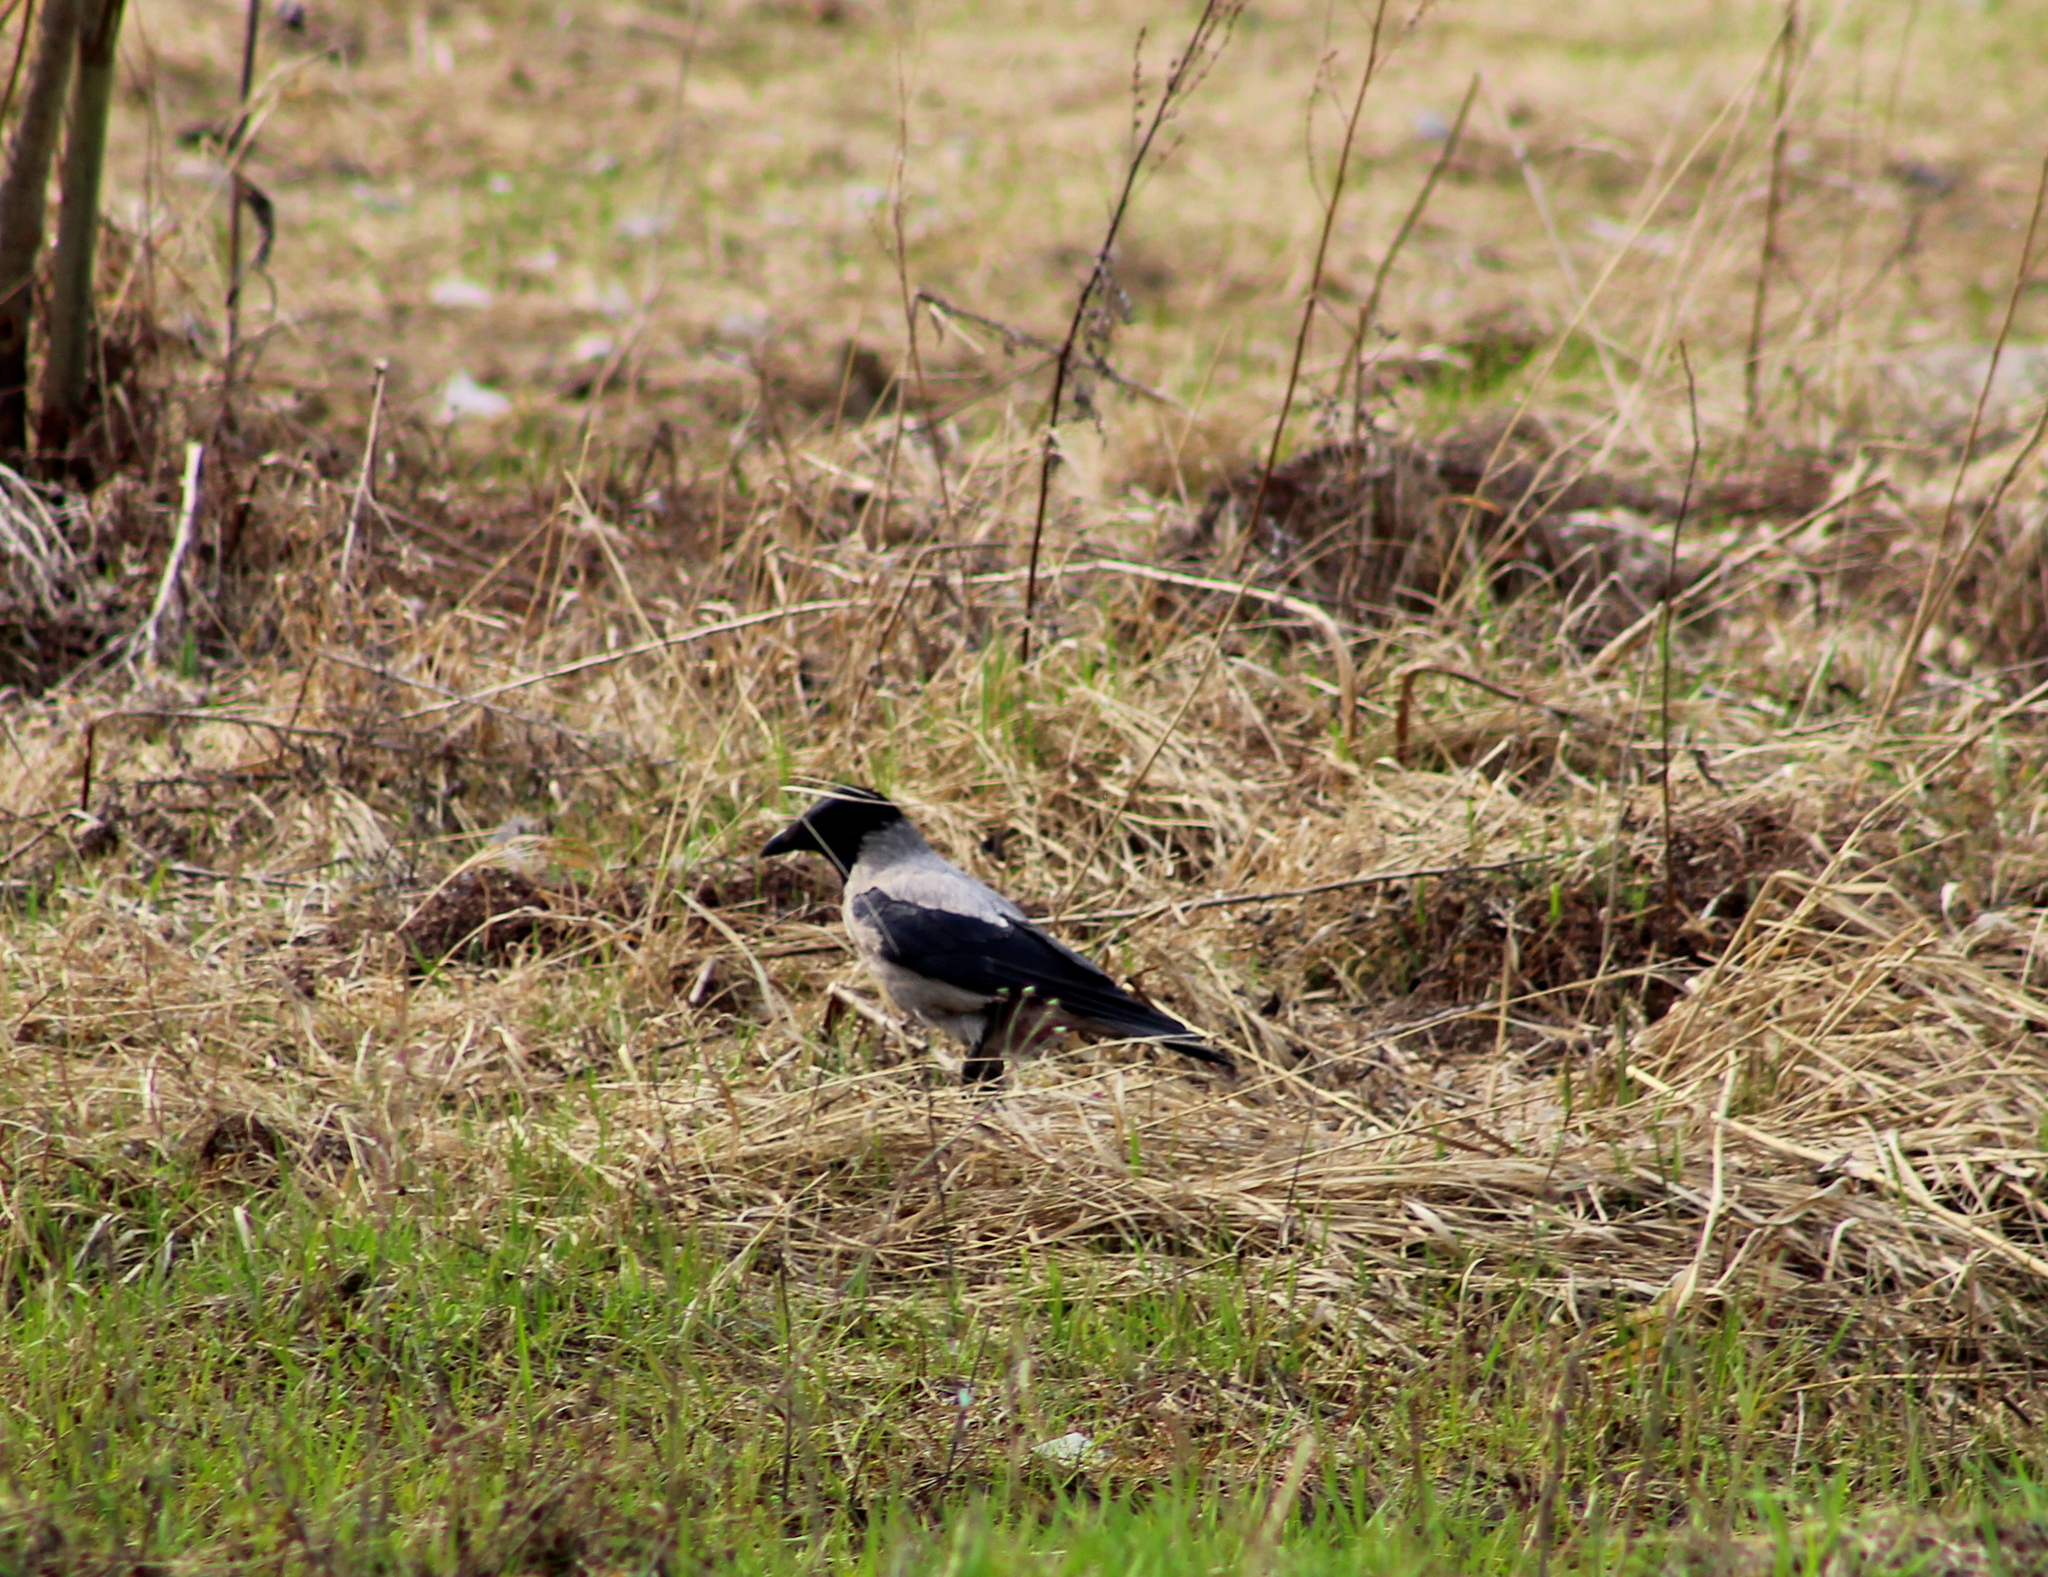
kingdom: Animalia
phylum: Chordata
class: Aves
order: Passeriformes
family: Corvidae
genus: Corvus
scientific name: Corvus cornix
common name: Hooded crow
